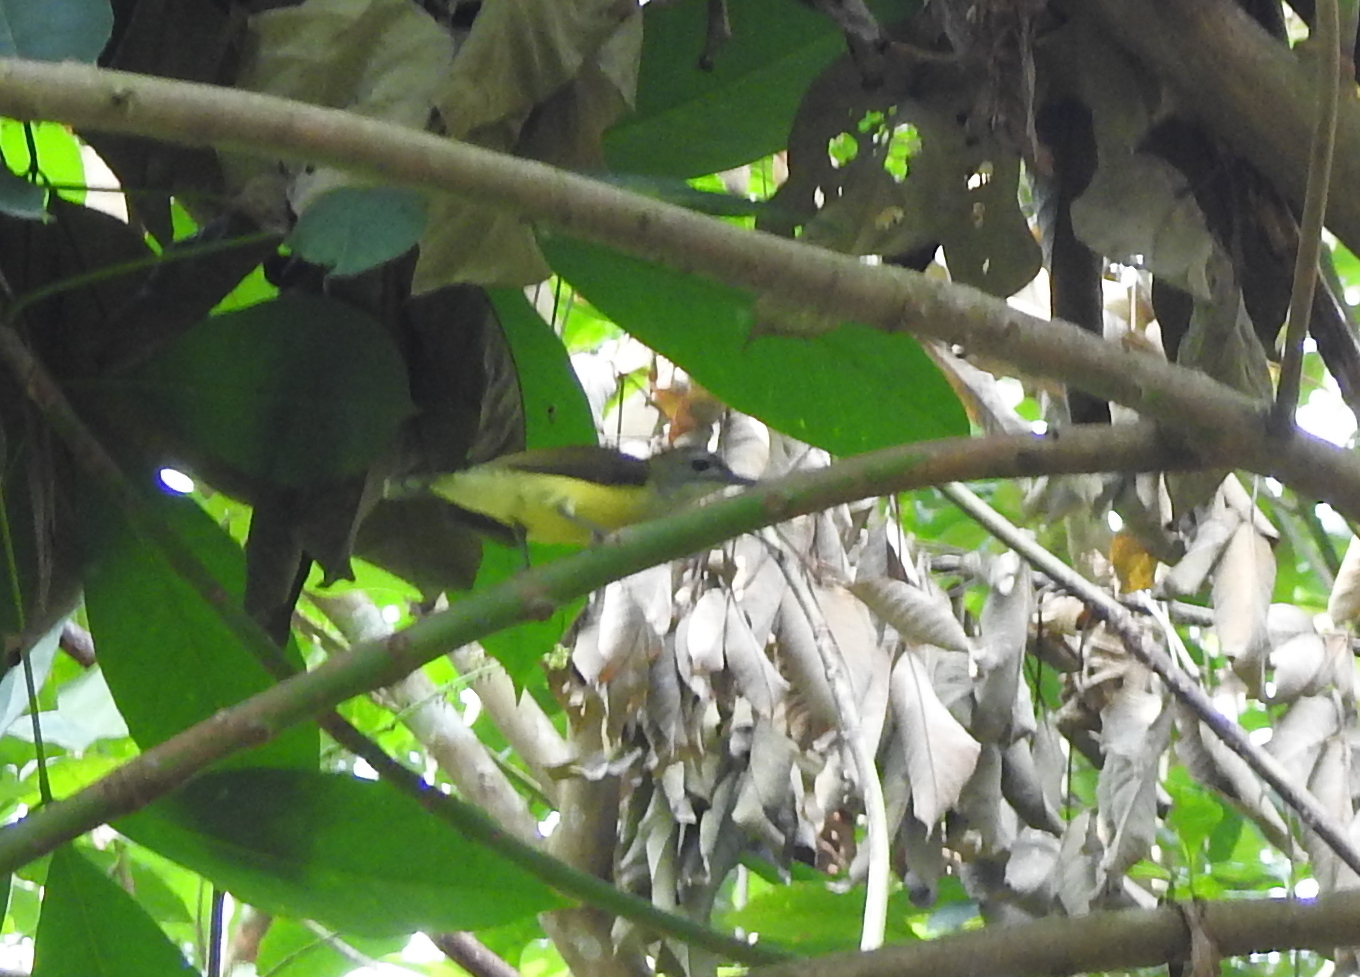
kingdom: Animalia
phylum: Chordata
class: Aves
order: Passeriformes
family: Nectariniidae
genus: Arachnothera
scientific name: Arachnothera longirostra
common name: Little spiderhunter
